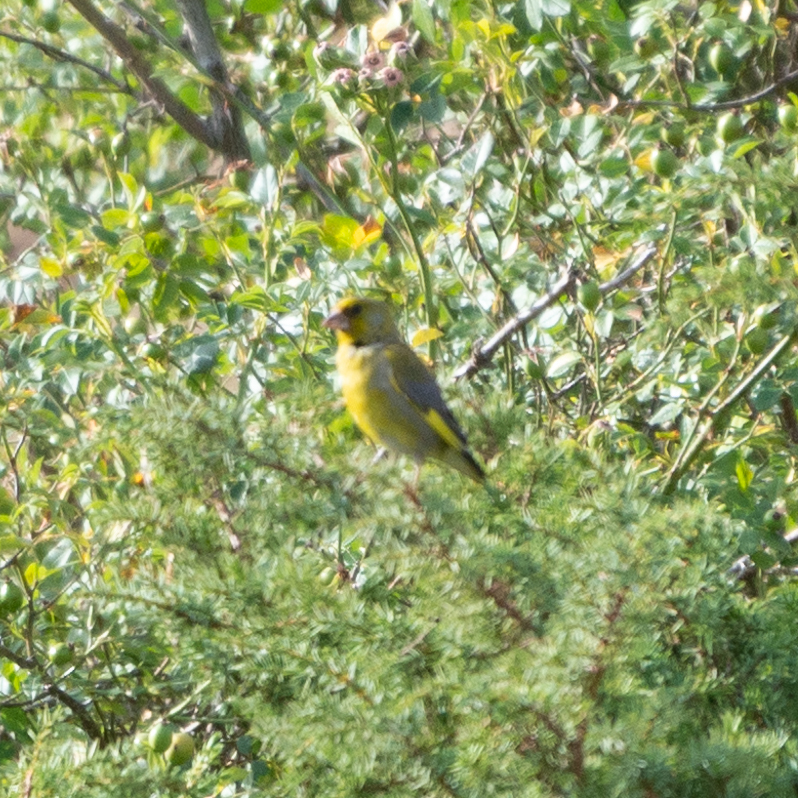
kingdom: Plantae
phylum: Tracheophyta
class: Liliopsida
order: Poales
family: Poaceae
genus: Chloris
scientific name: Chloris chloris
